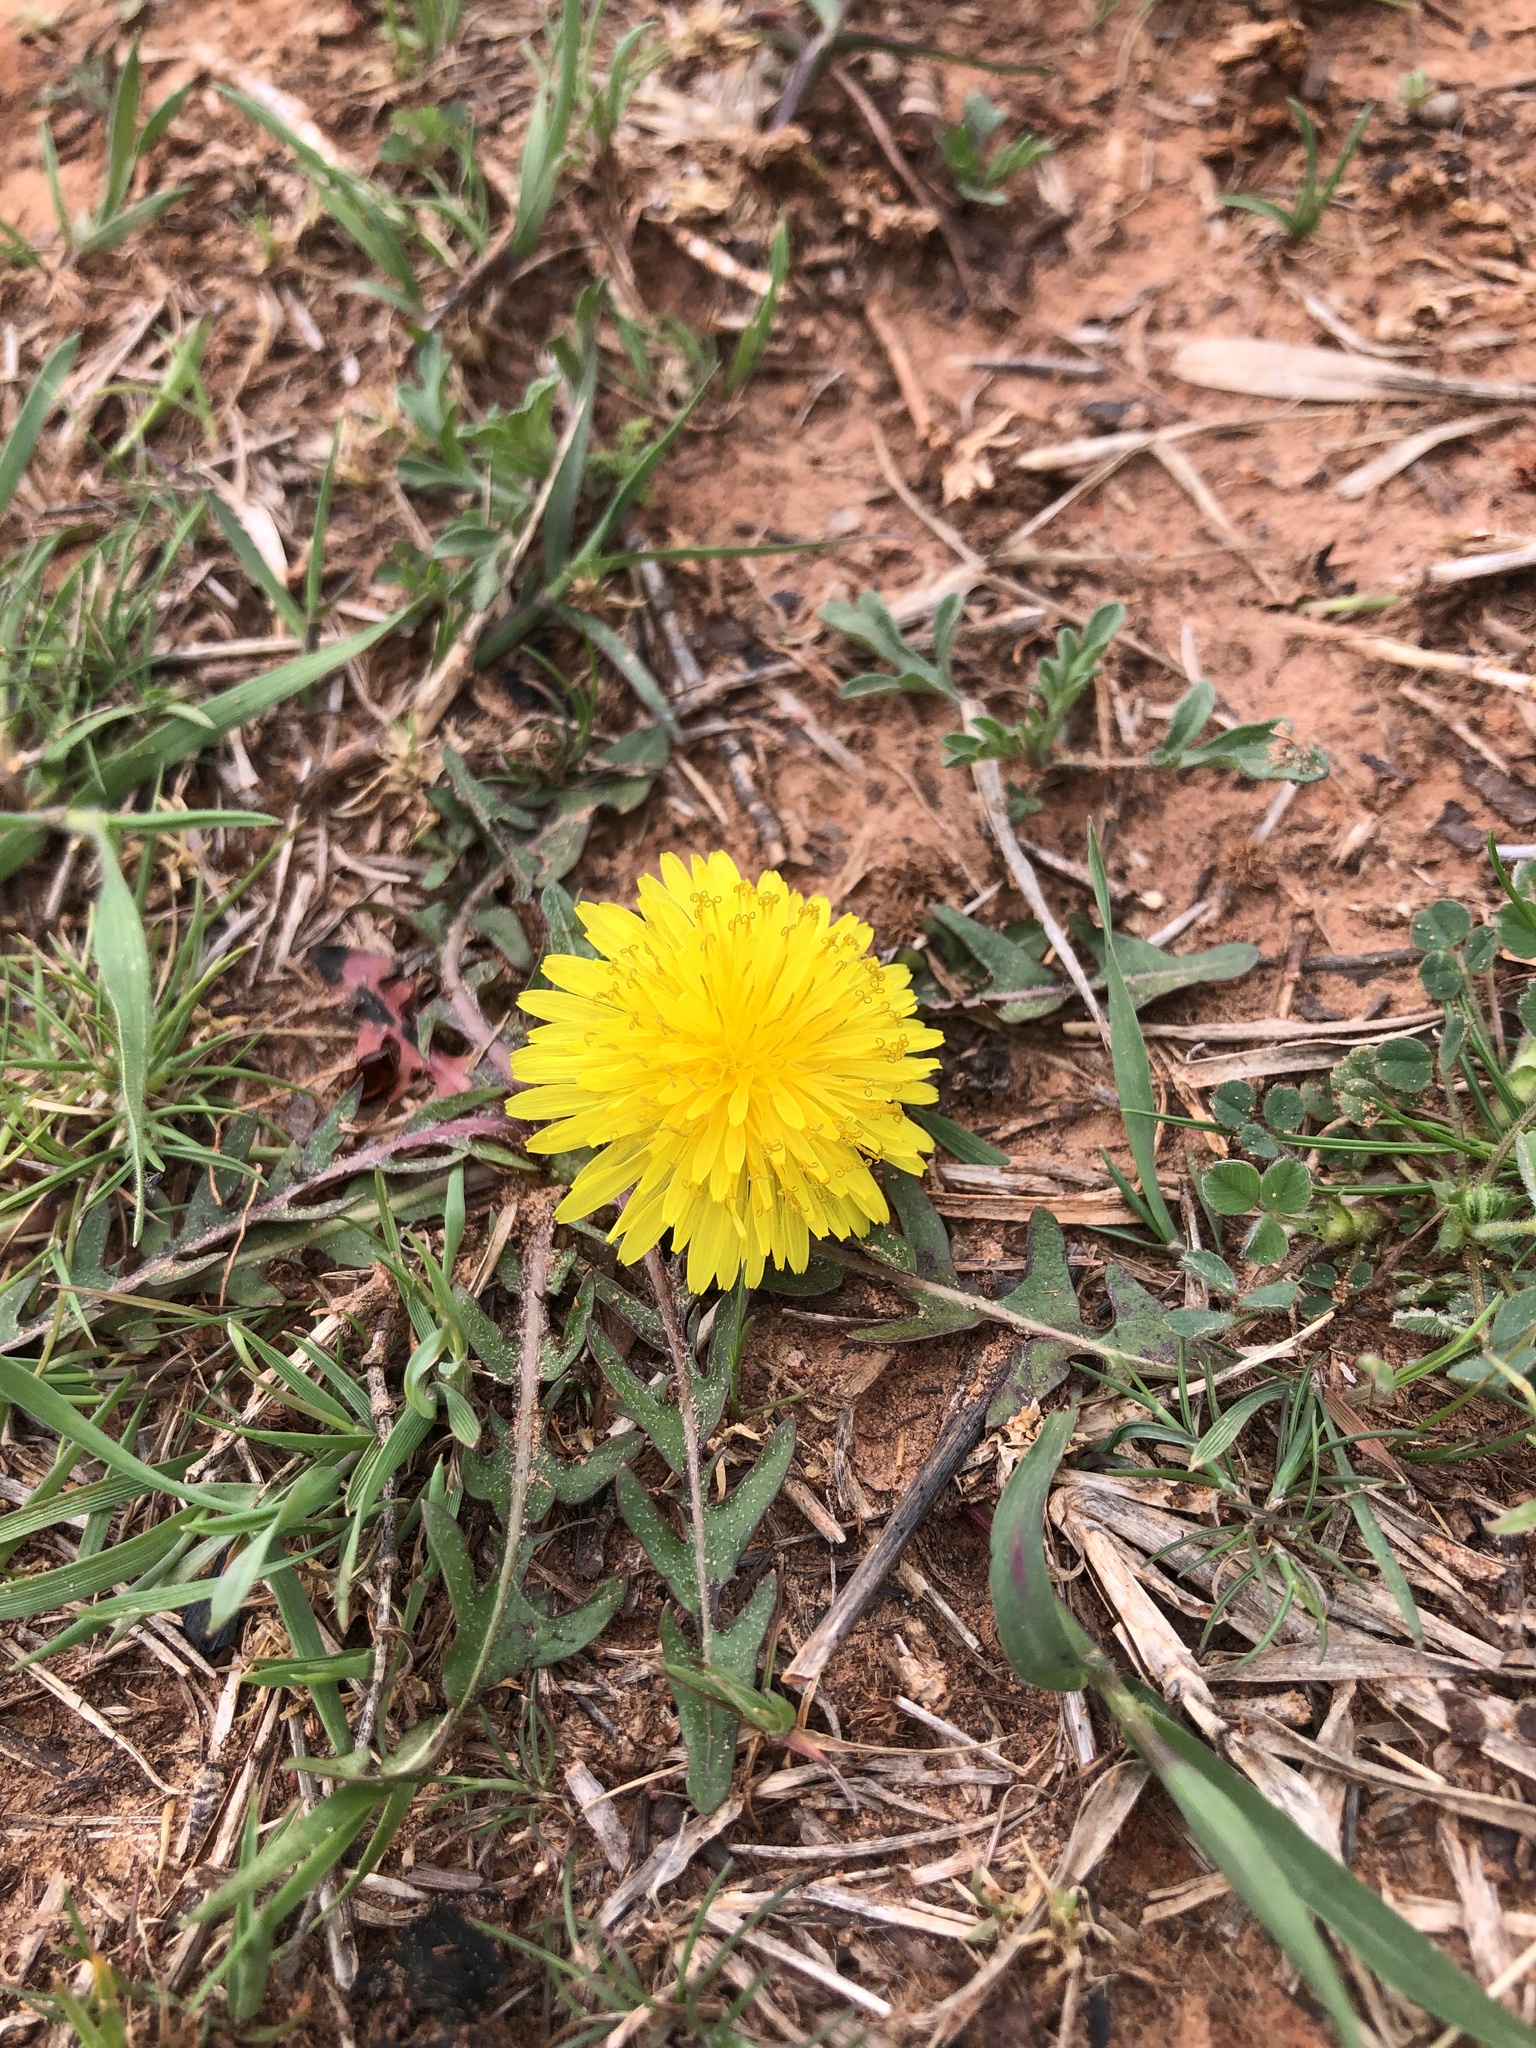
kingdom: Plantae
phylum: Tracheophyta
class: Magnoliopsida
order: Asterales
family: Asteraceae
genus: Taraxacum
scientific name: Taraxacum
